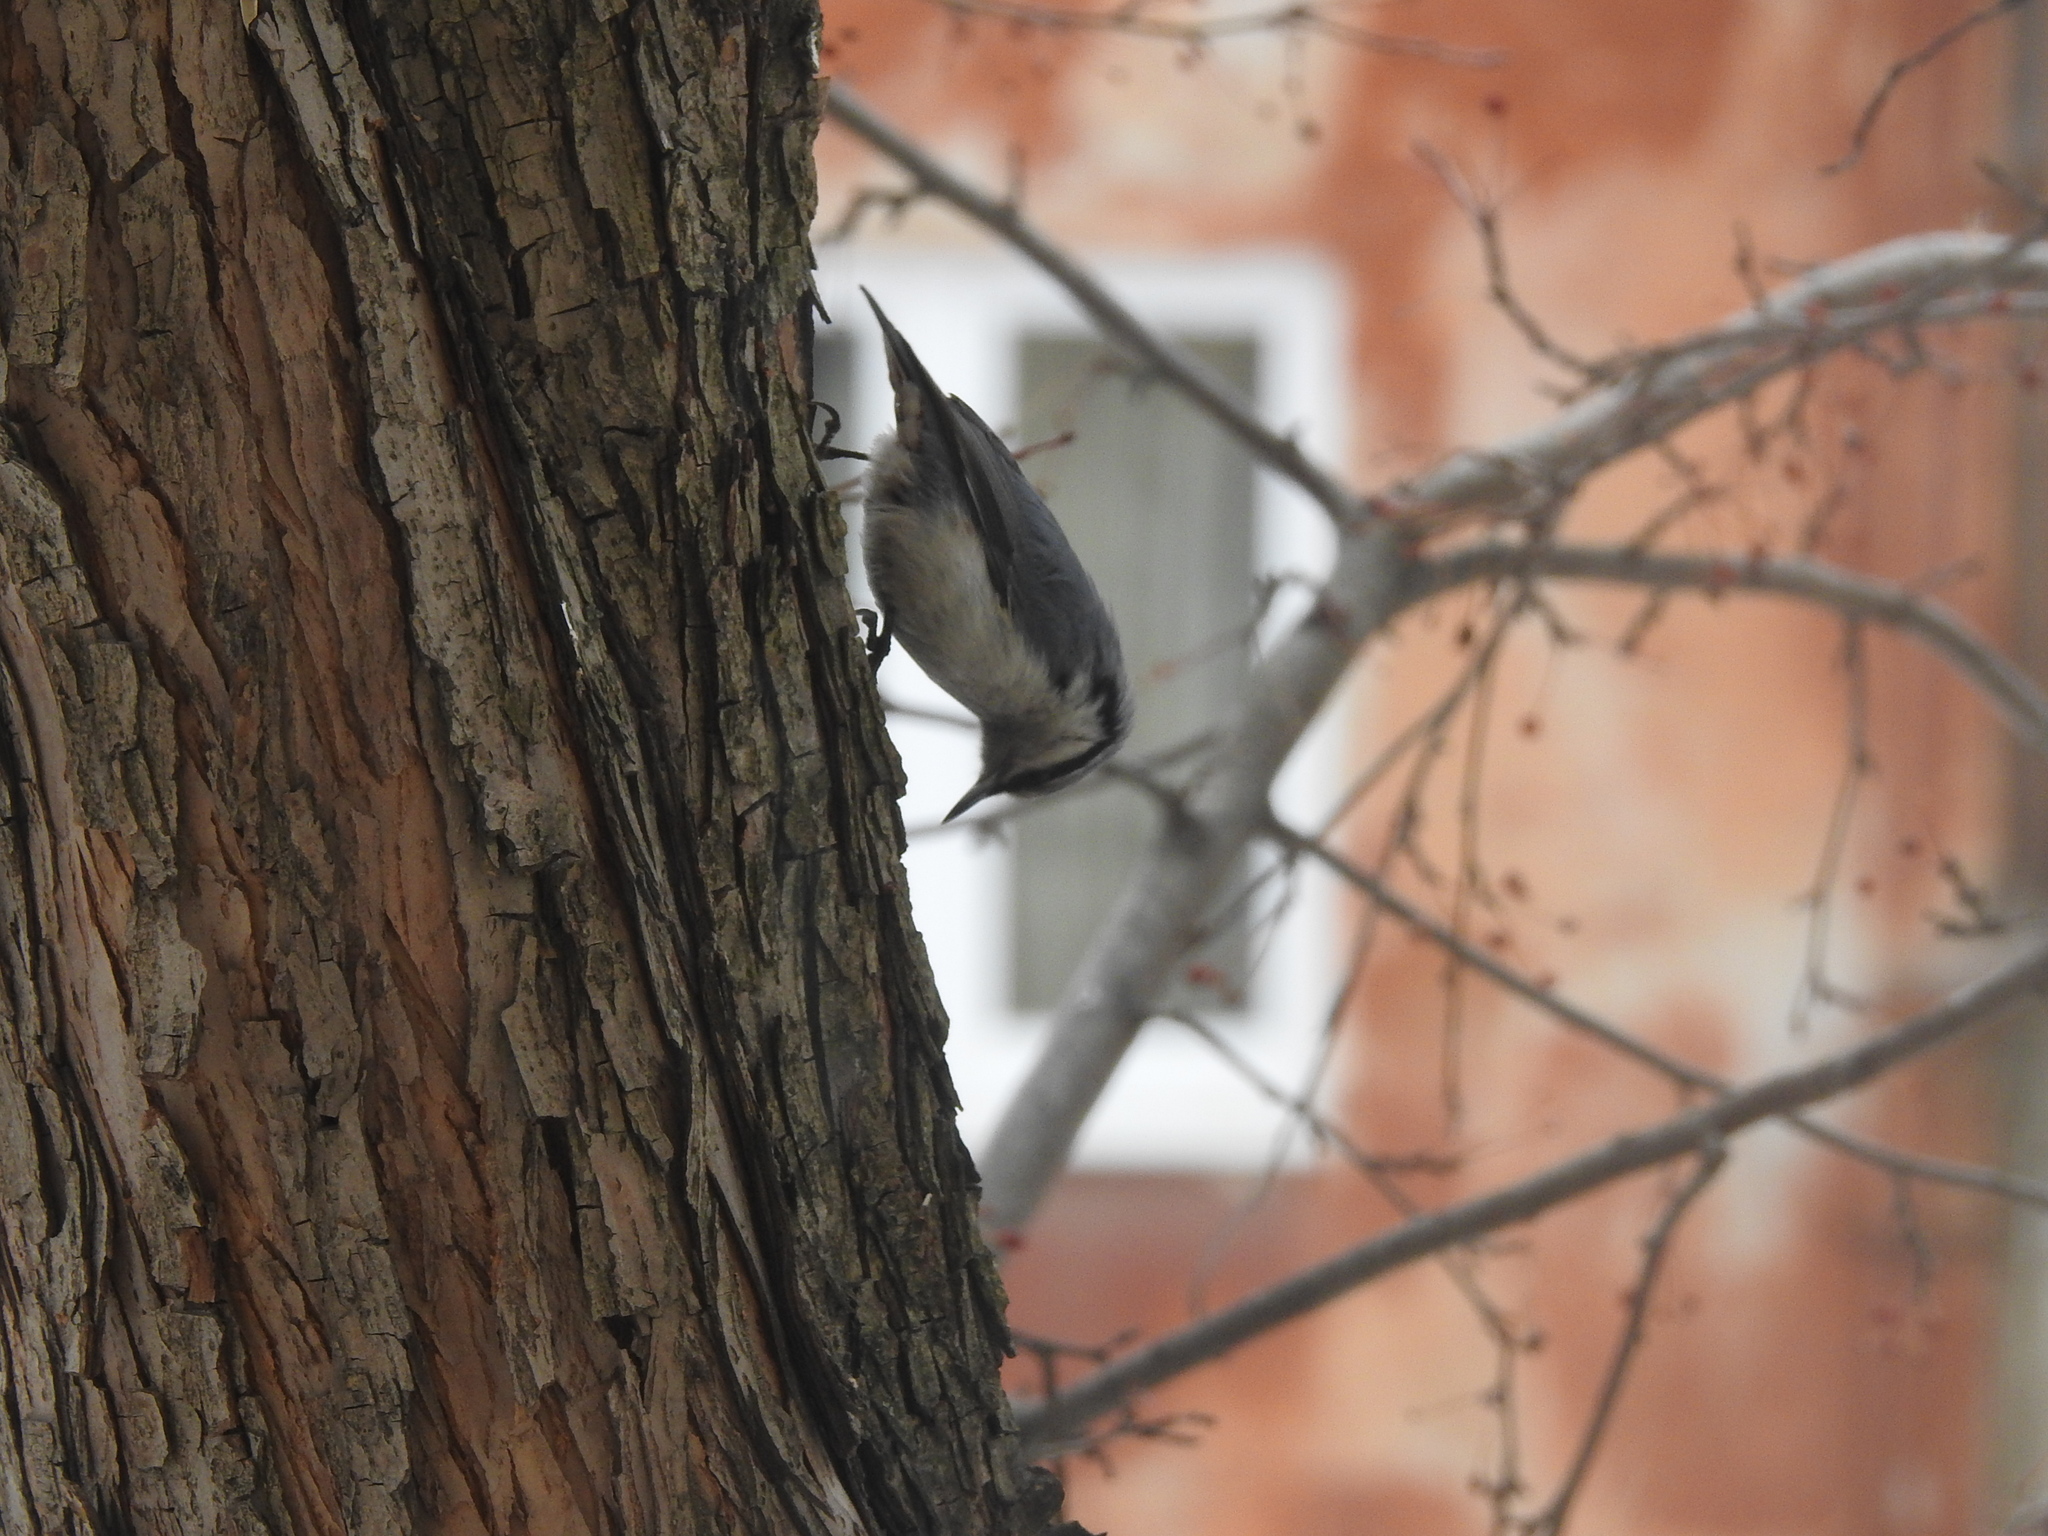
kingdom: Animalia
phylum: Chordata
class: Aves
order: Passeriformes
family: Sittidae
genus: Sitta
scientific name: Sitta europaea
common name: Eurasian nuthatch
